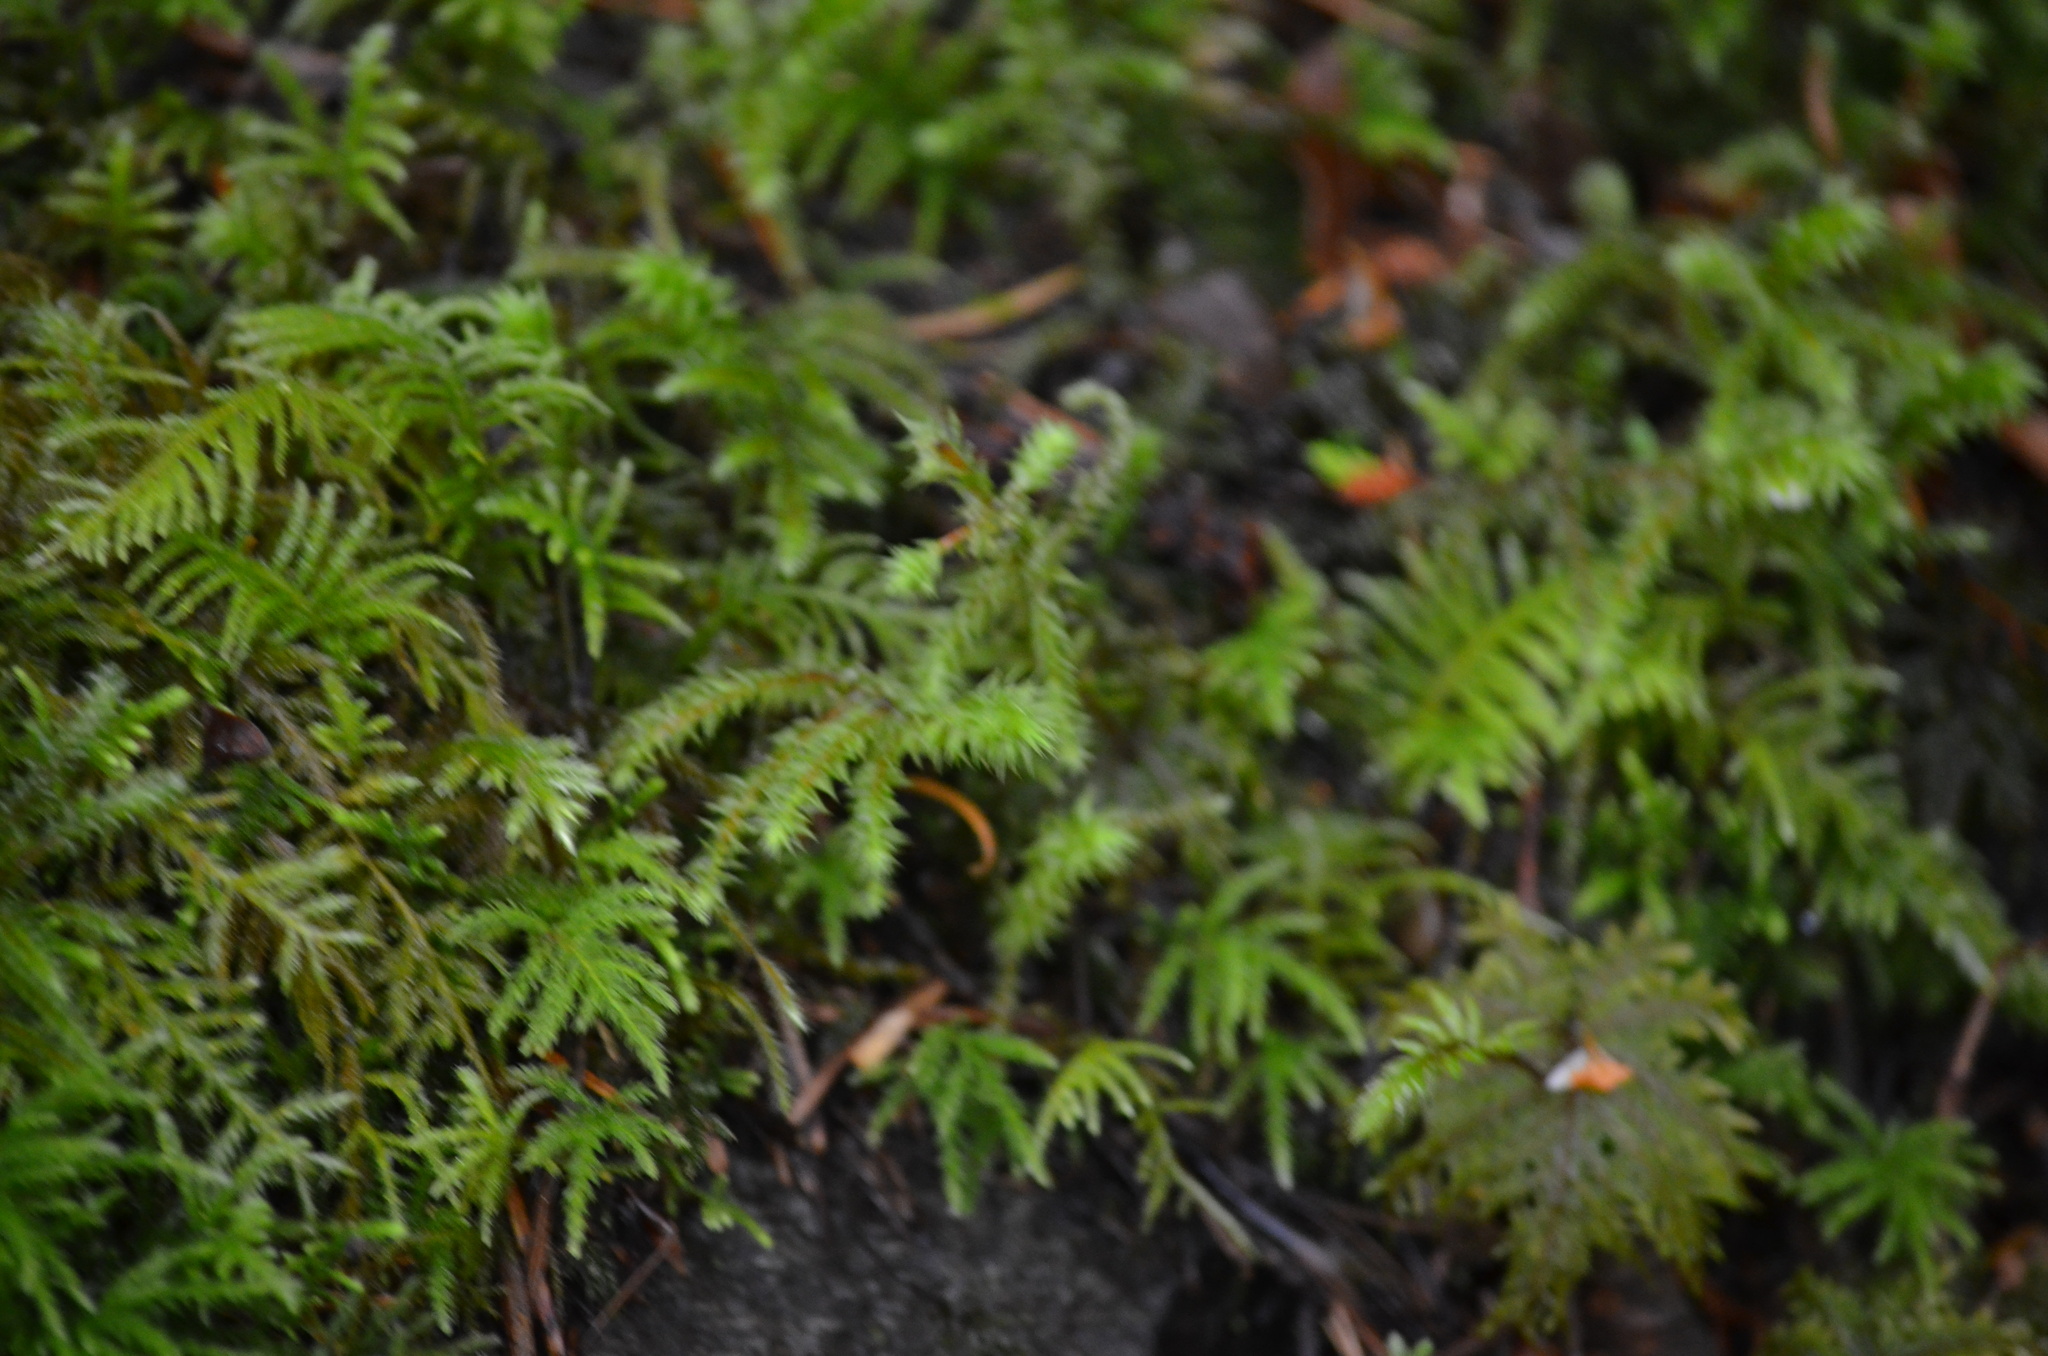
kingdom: Plantae
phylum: Bryophyta
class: Bryopsida
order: Hypnales
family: Hylocomiaceae
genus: Hylocomiadelphus
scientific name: Hylocomiadelphus triquetrus
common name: Rough goose neck moss
